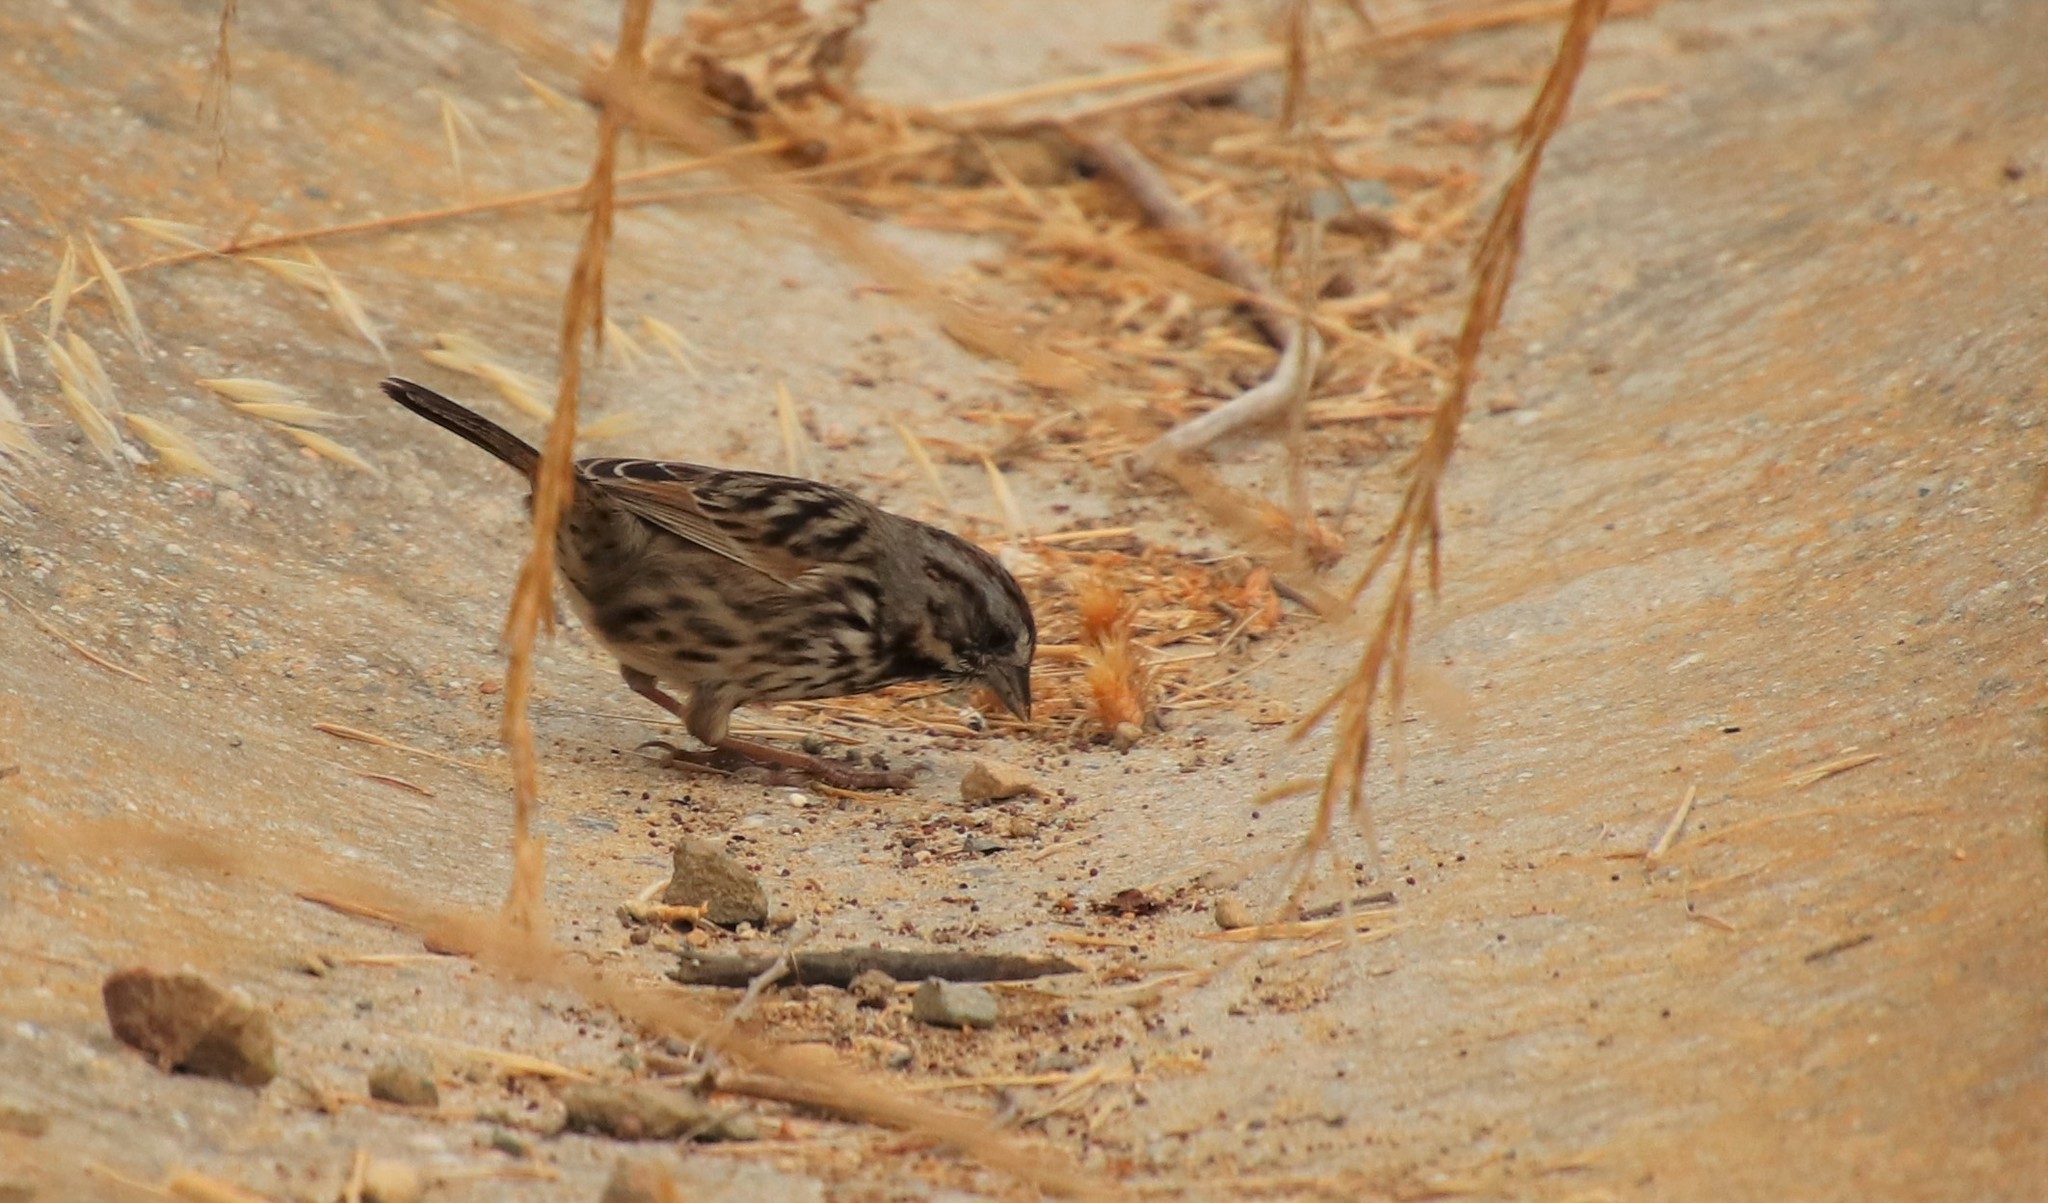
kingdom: Animalia
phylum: Chordata
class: Aves
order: Passeriformes
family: Passerellidae
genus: Melospiza
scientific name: Melospiza melodia
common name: Song sparrow
